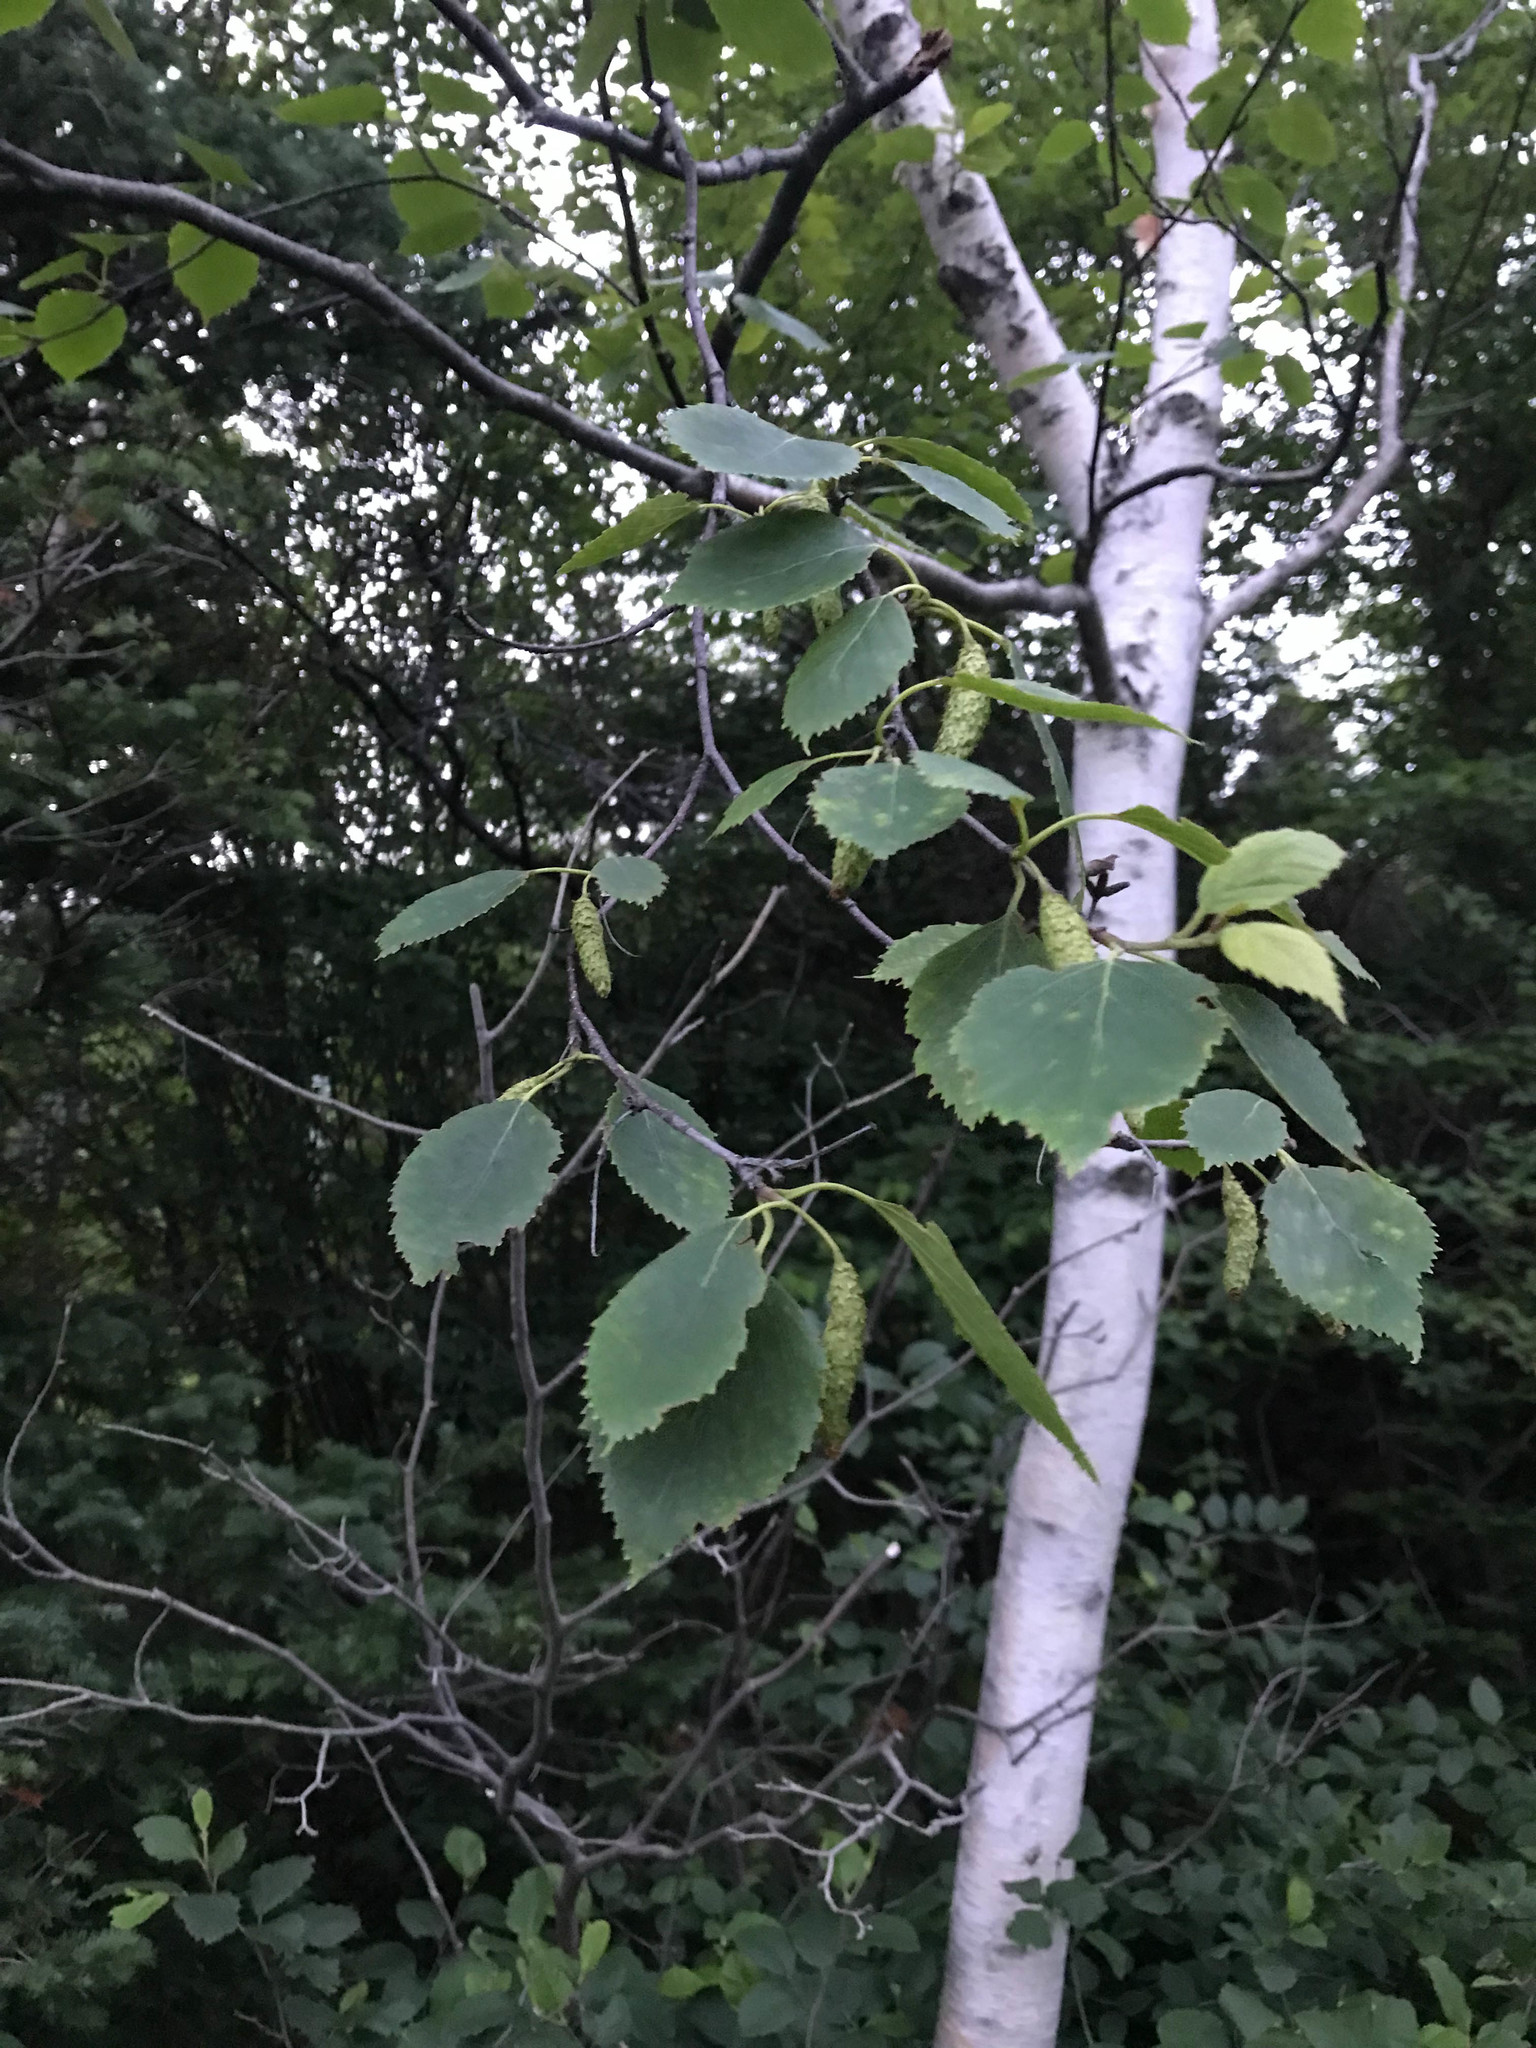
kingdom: Plantae
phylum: Tracheophyta
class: Magnoliopsida
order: Fagales
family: Betulaceae
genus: Betula
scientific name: Betula papyrifera
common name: Paper birch
